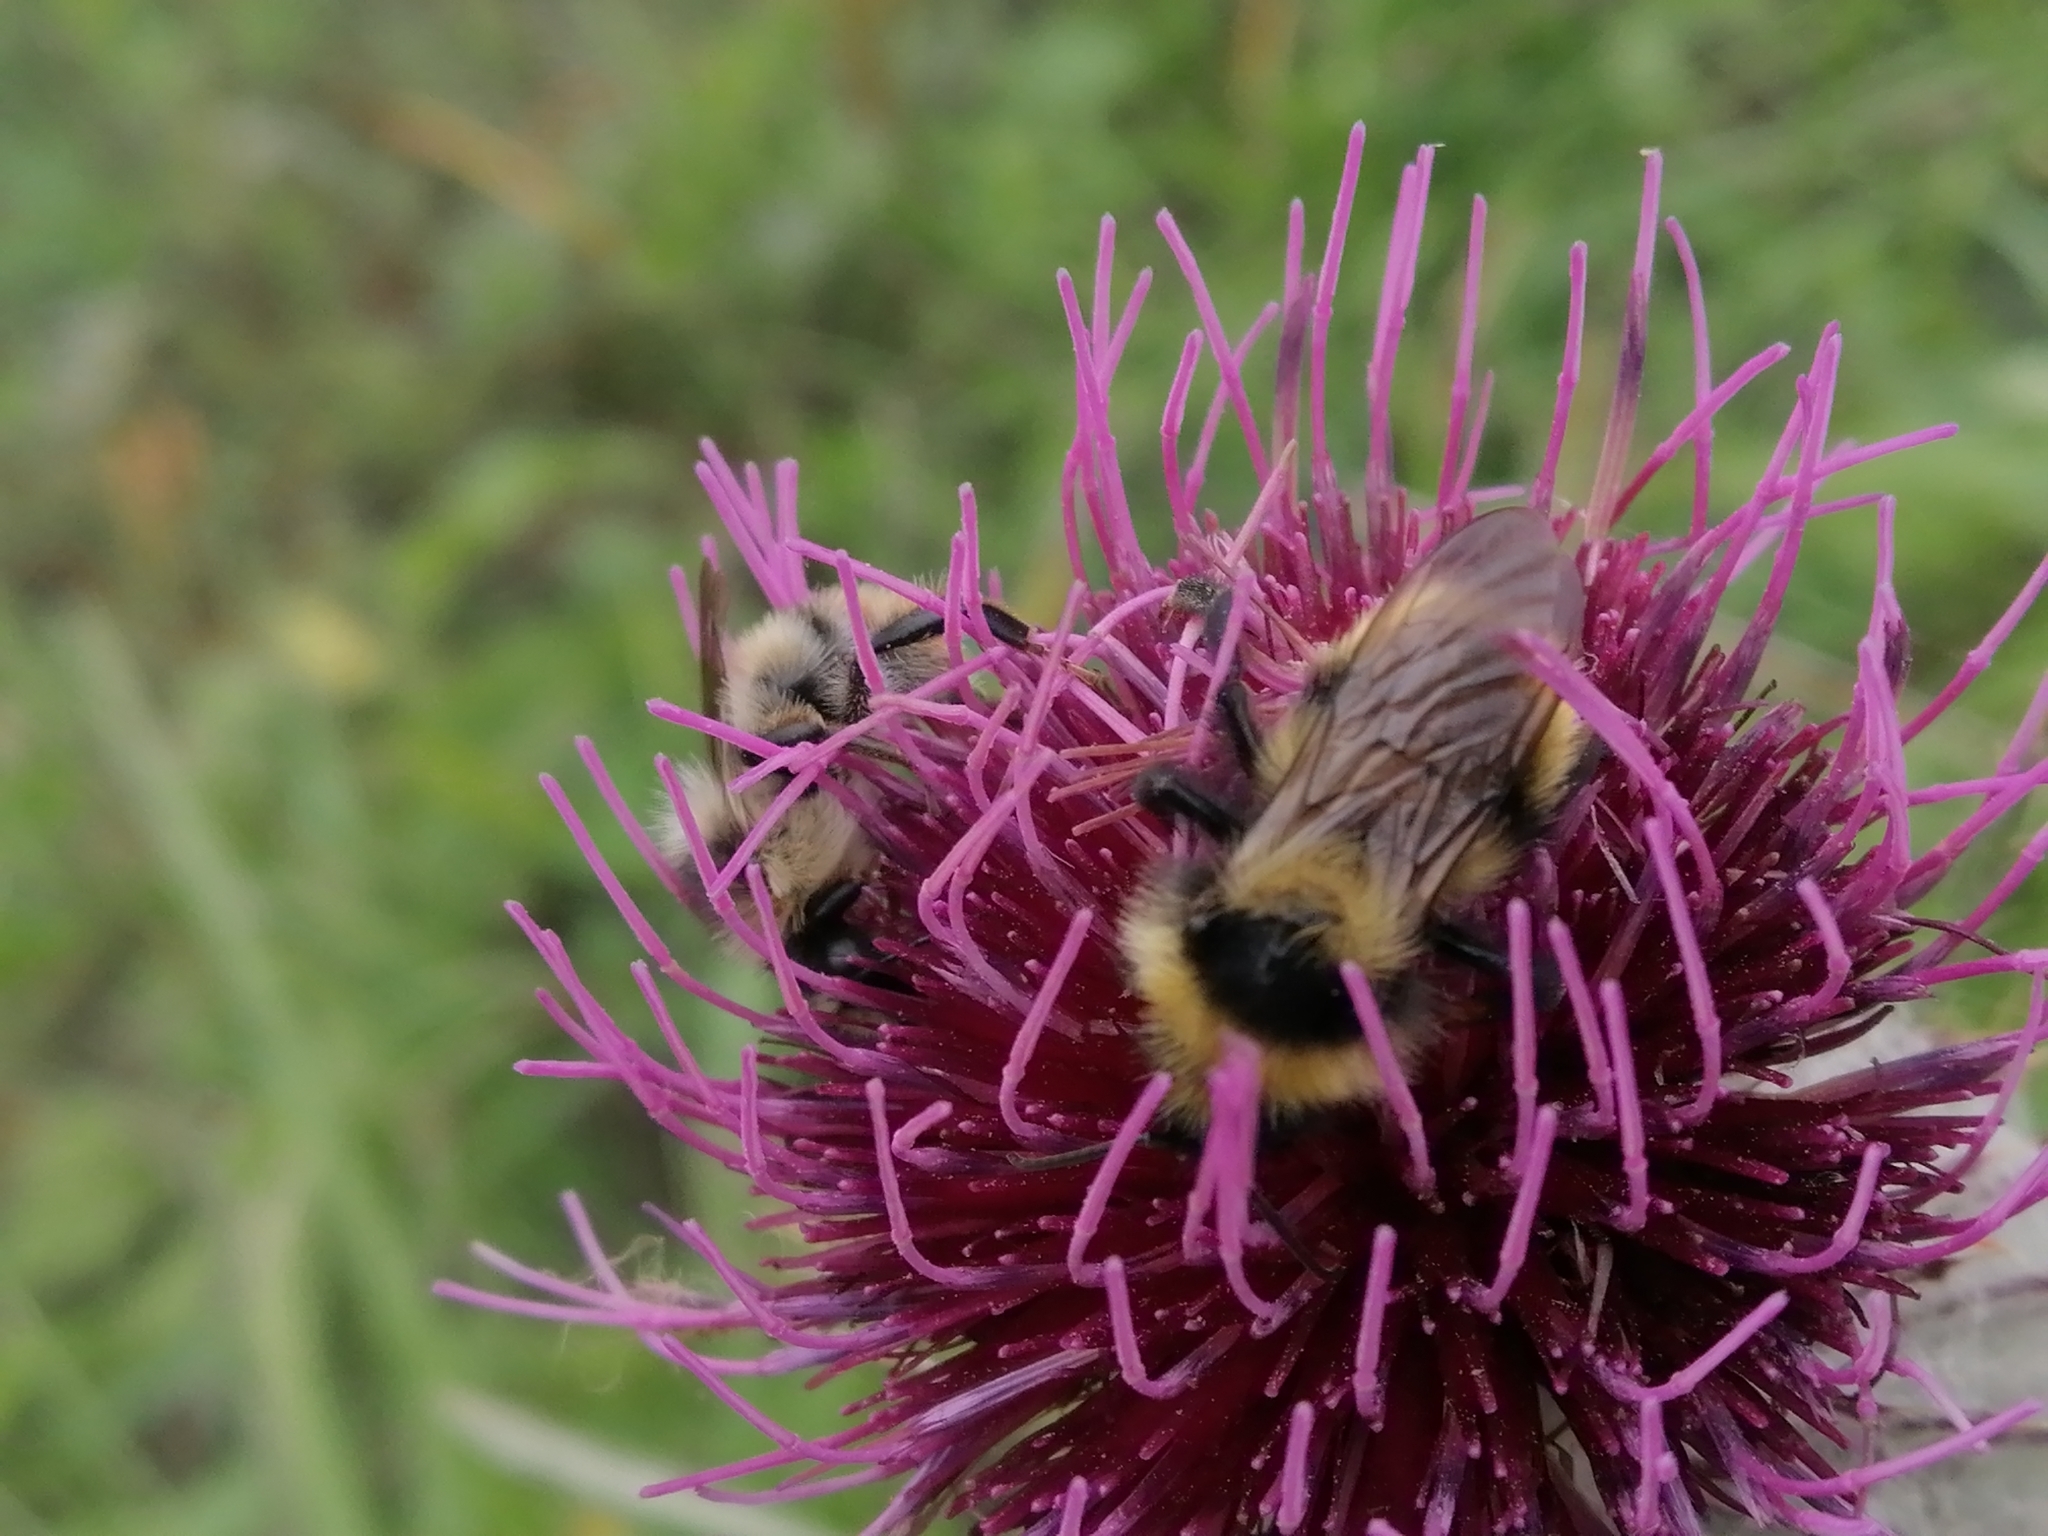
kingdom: Animalia
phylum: Arthropoda
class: Insecta
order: Hymenoptera
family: Apidae
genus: Bombus
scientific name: Bombus sylvarum
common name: Shrill carder bee
